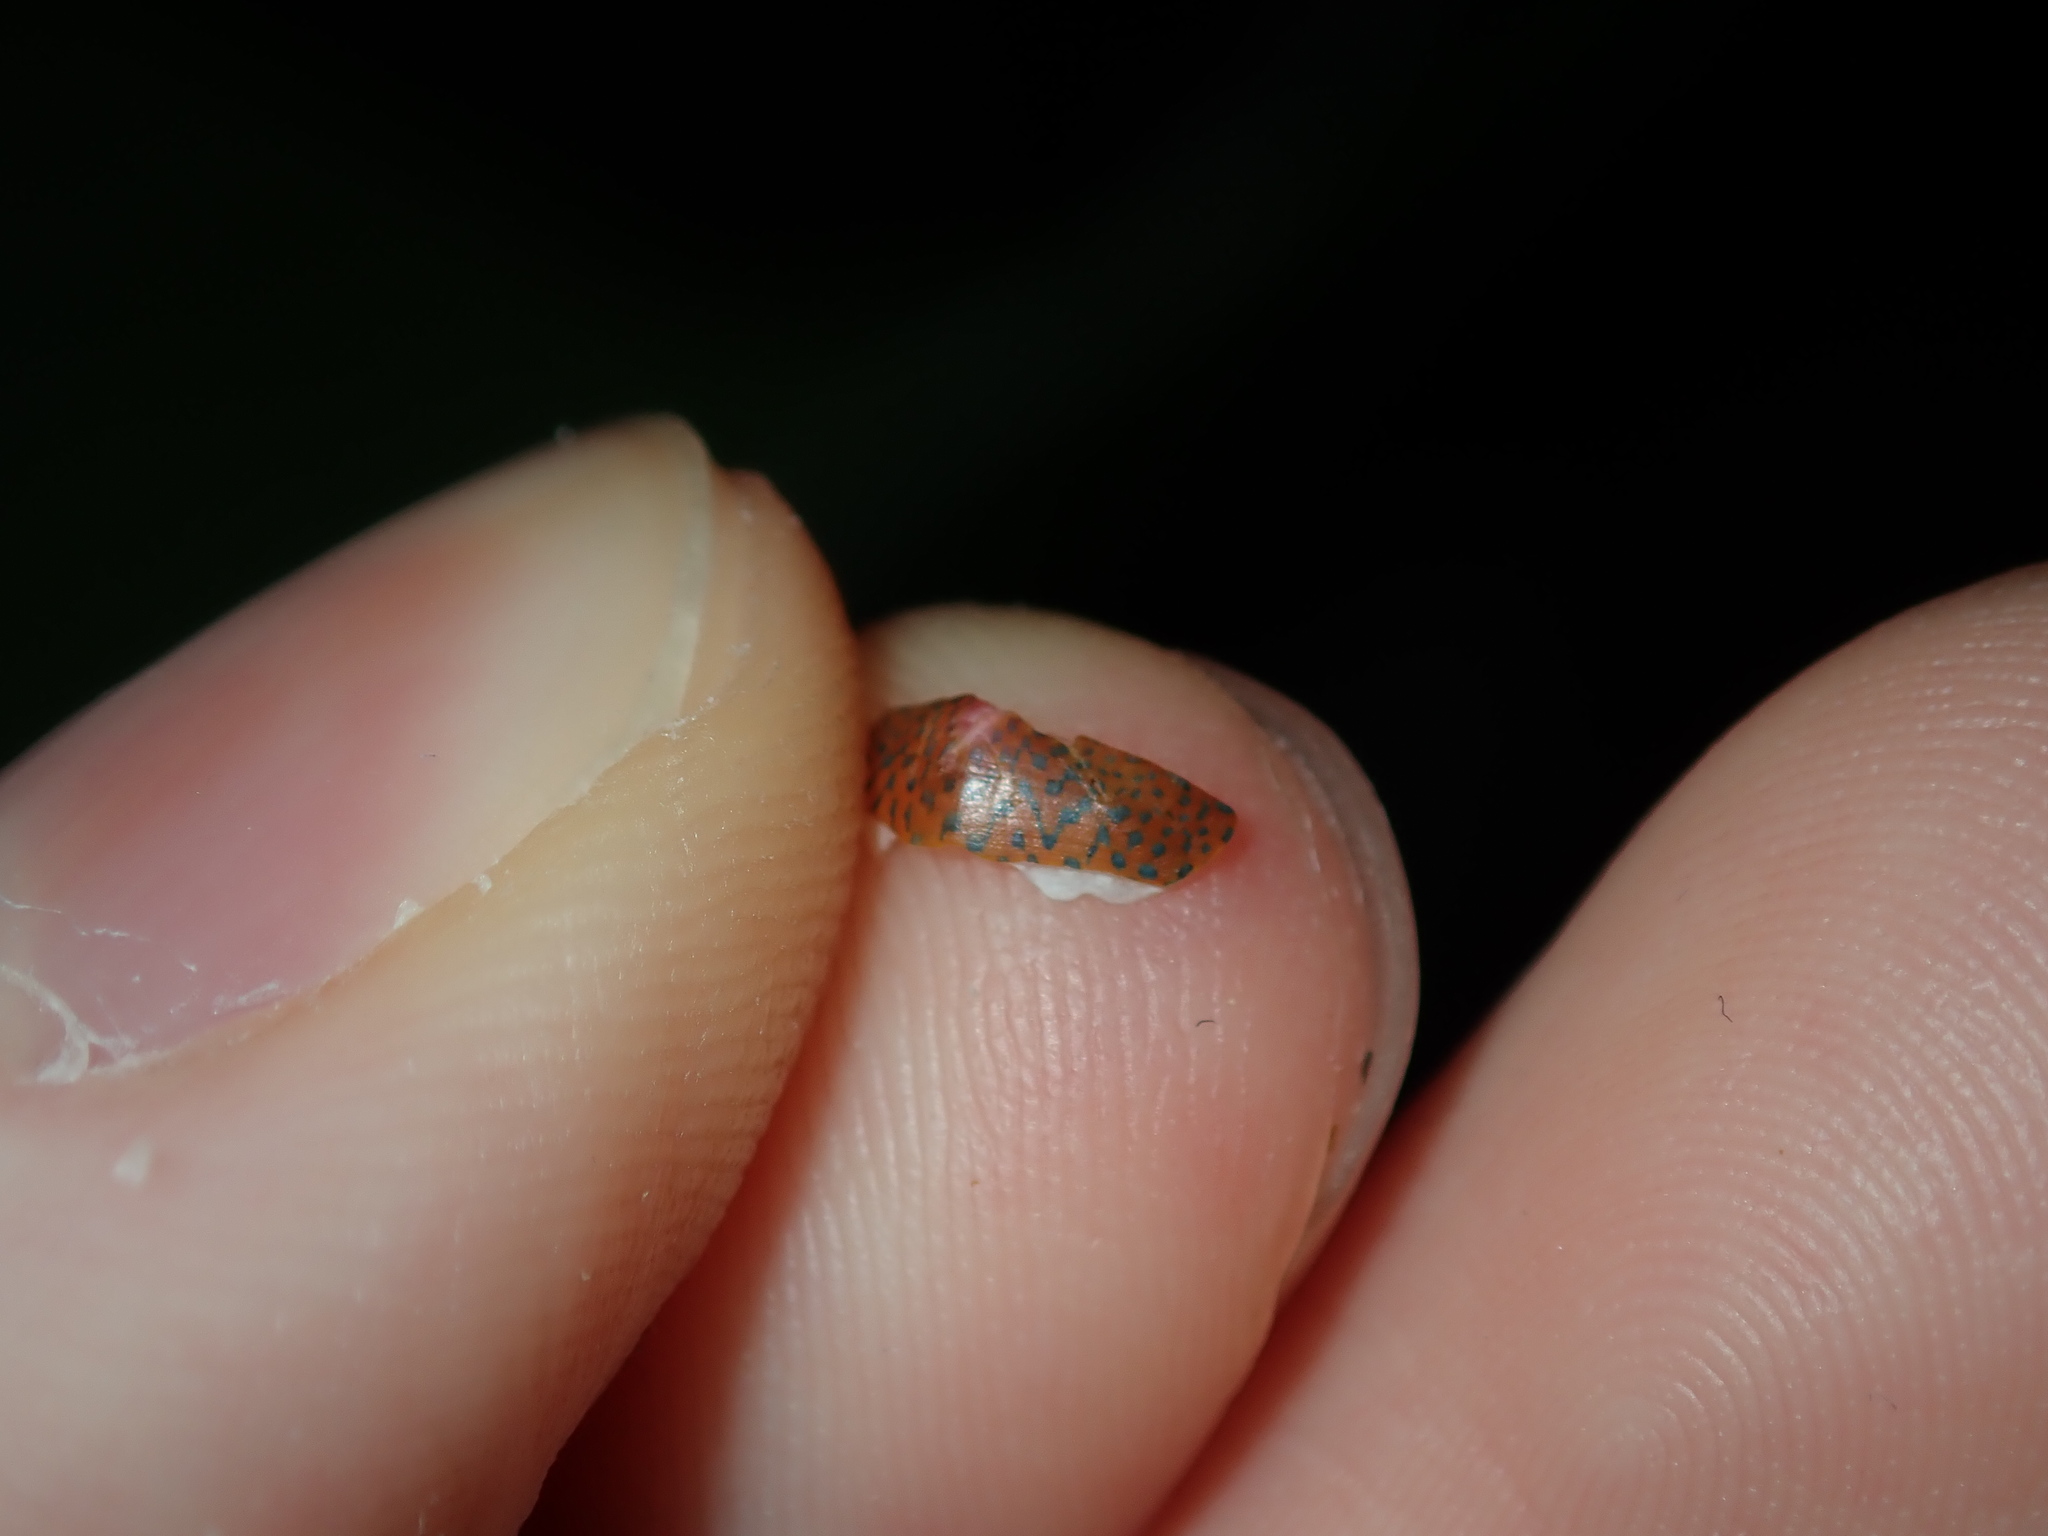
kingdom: Animalia
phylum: Mollusca
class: Polyplacophora
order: Chitonida
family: Ischnochitonidae
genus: Ischnochiton
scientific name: Ischnochiton lentiginosus
